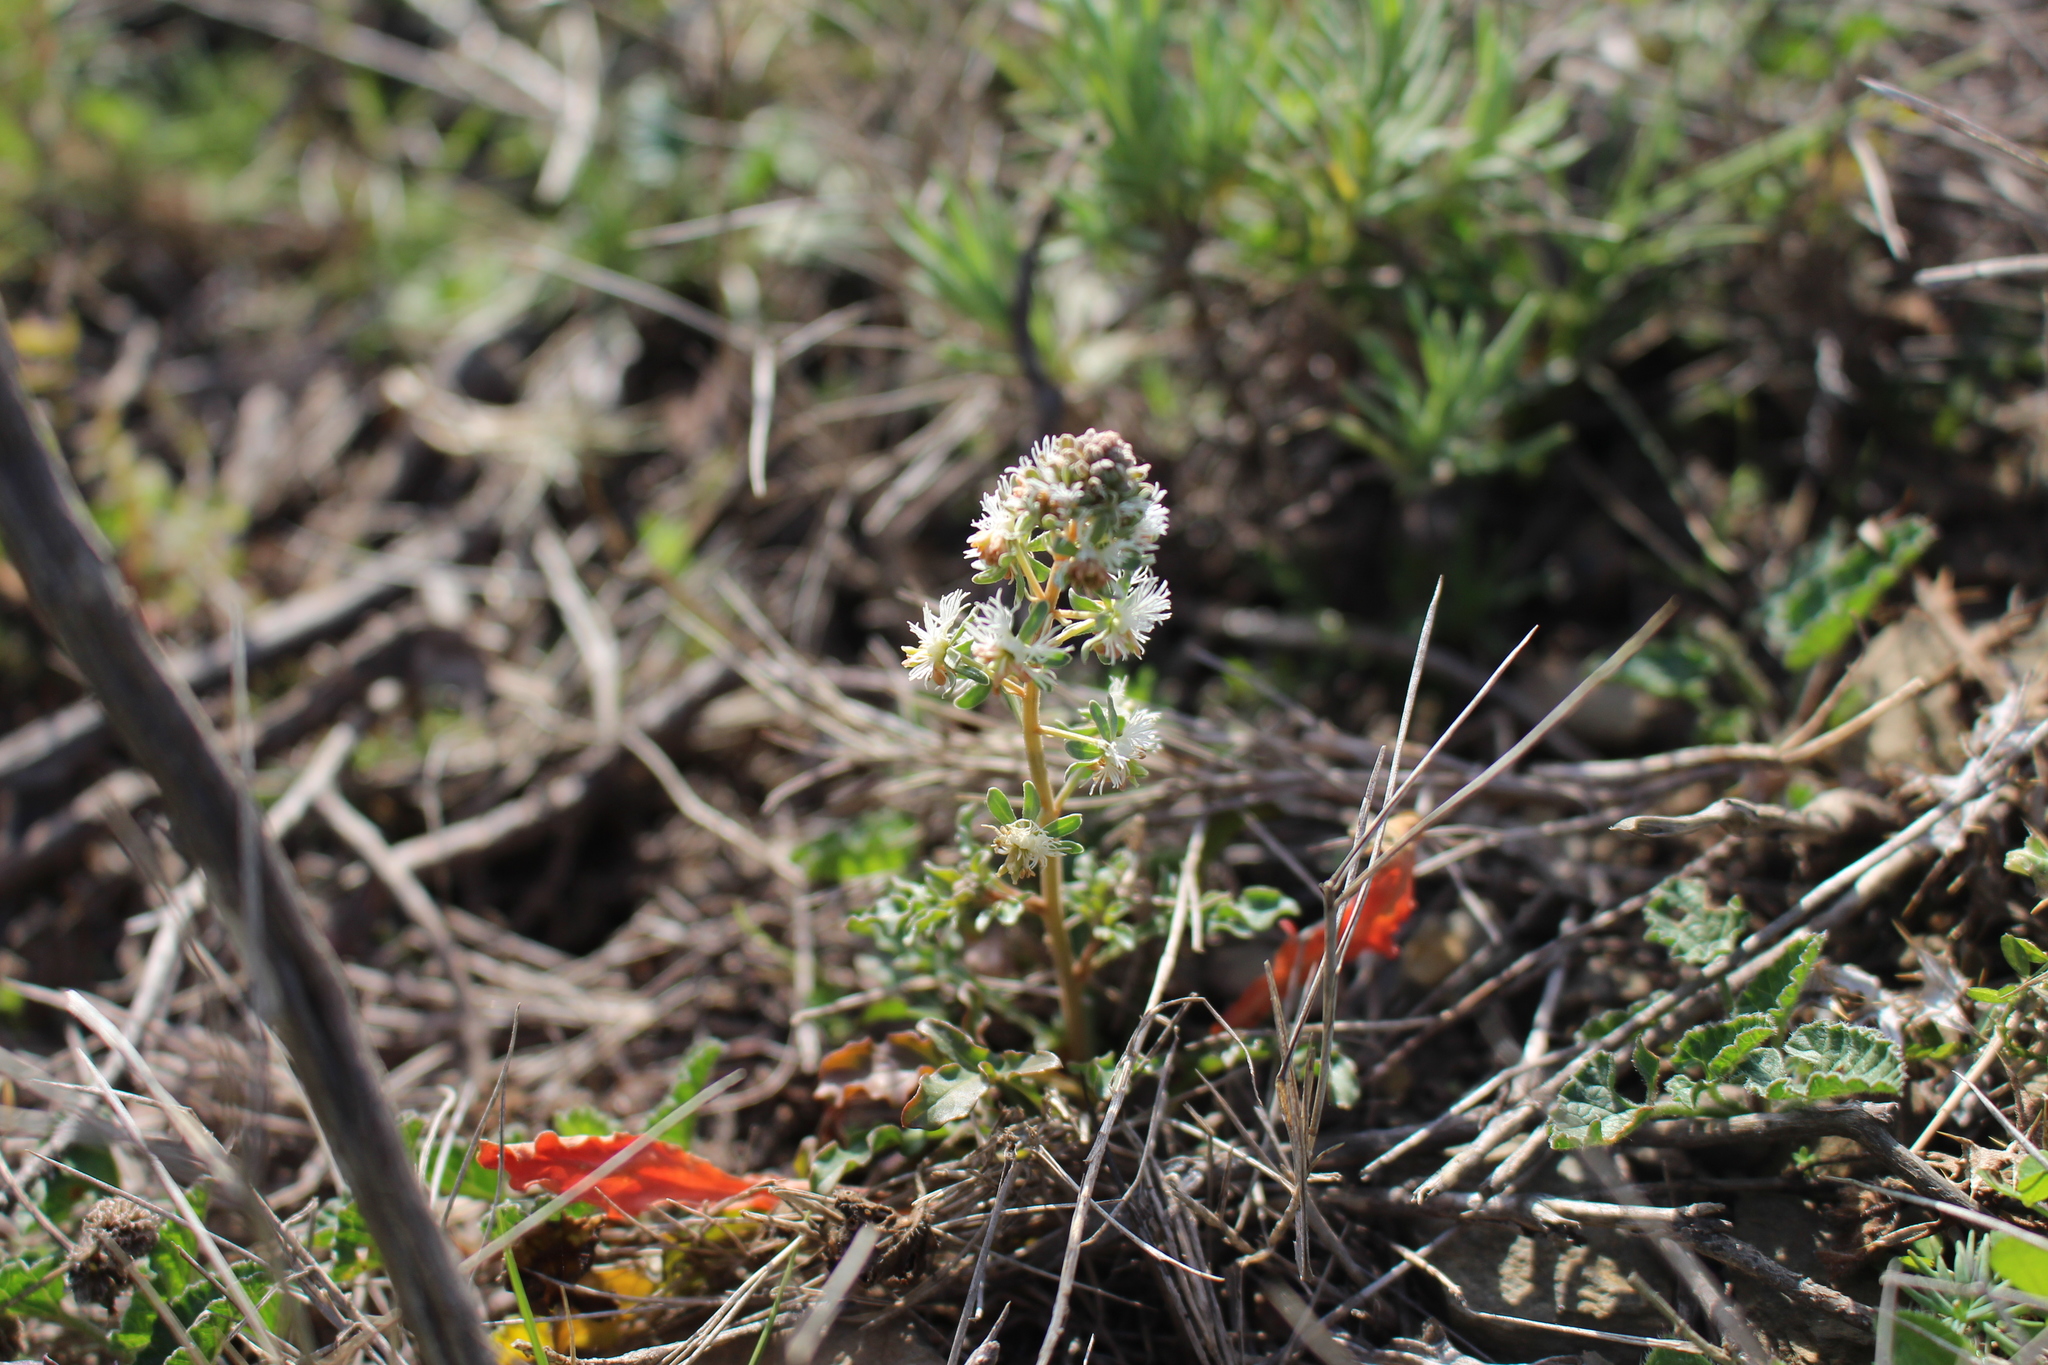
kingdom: Plantae
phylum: Tracheophyta
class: Magnoliopsida
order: Brassicales
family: Resedaceae
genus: Reseda
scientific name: Reseda phyteuma
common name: Corn mignonette
